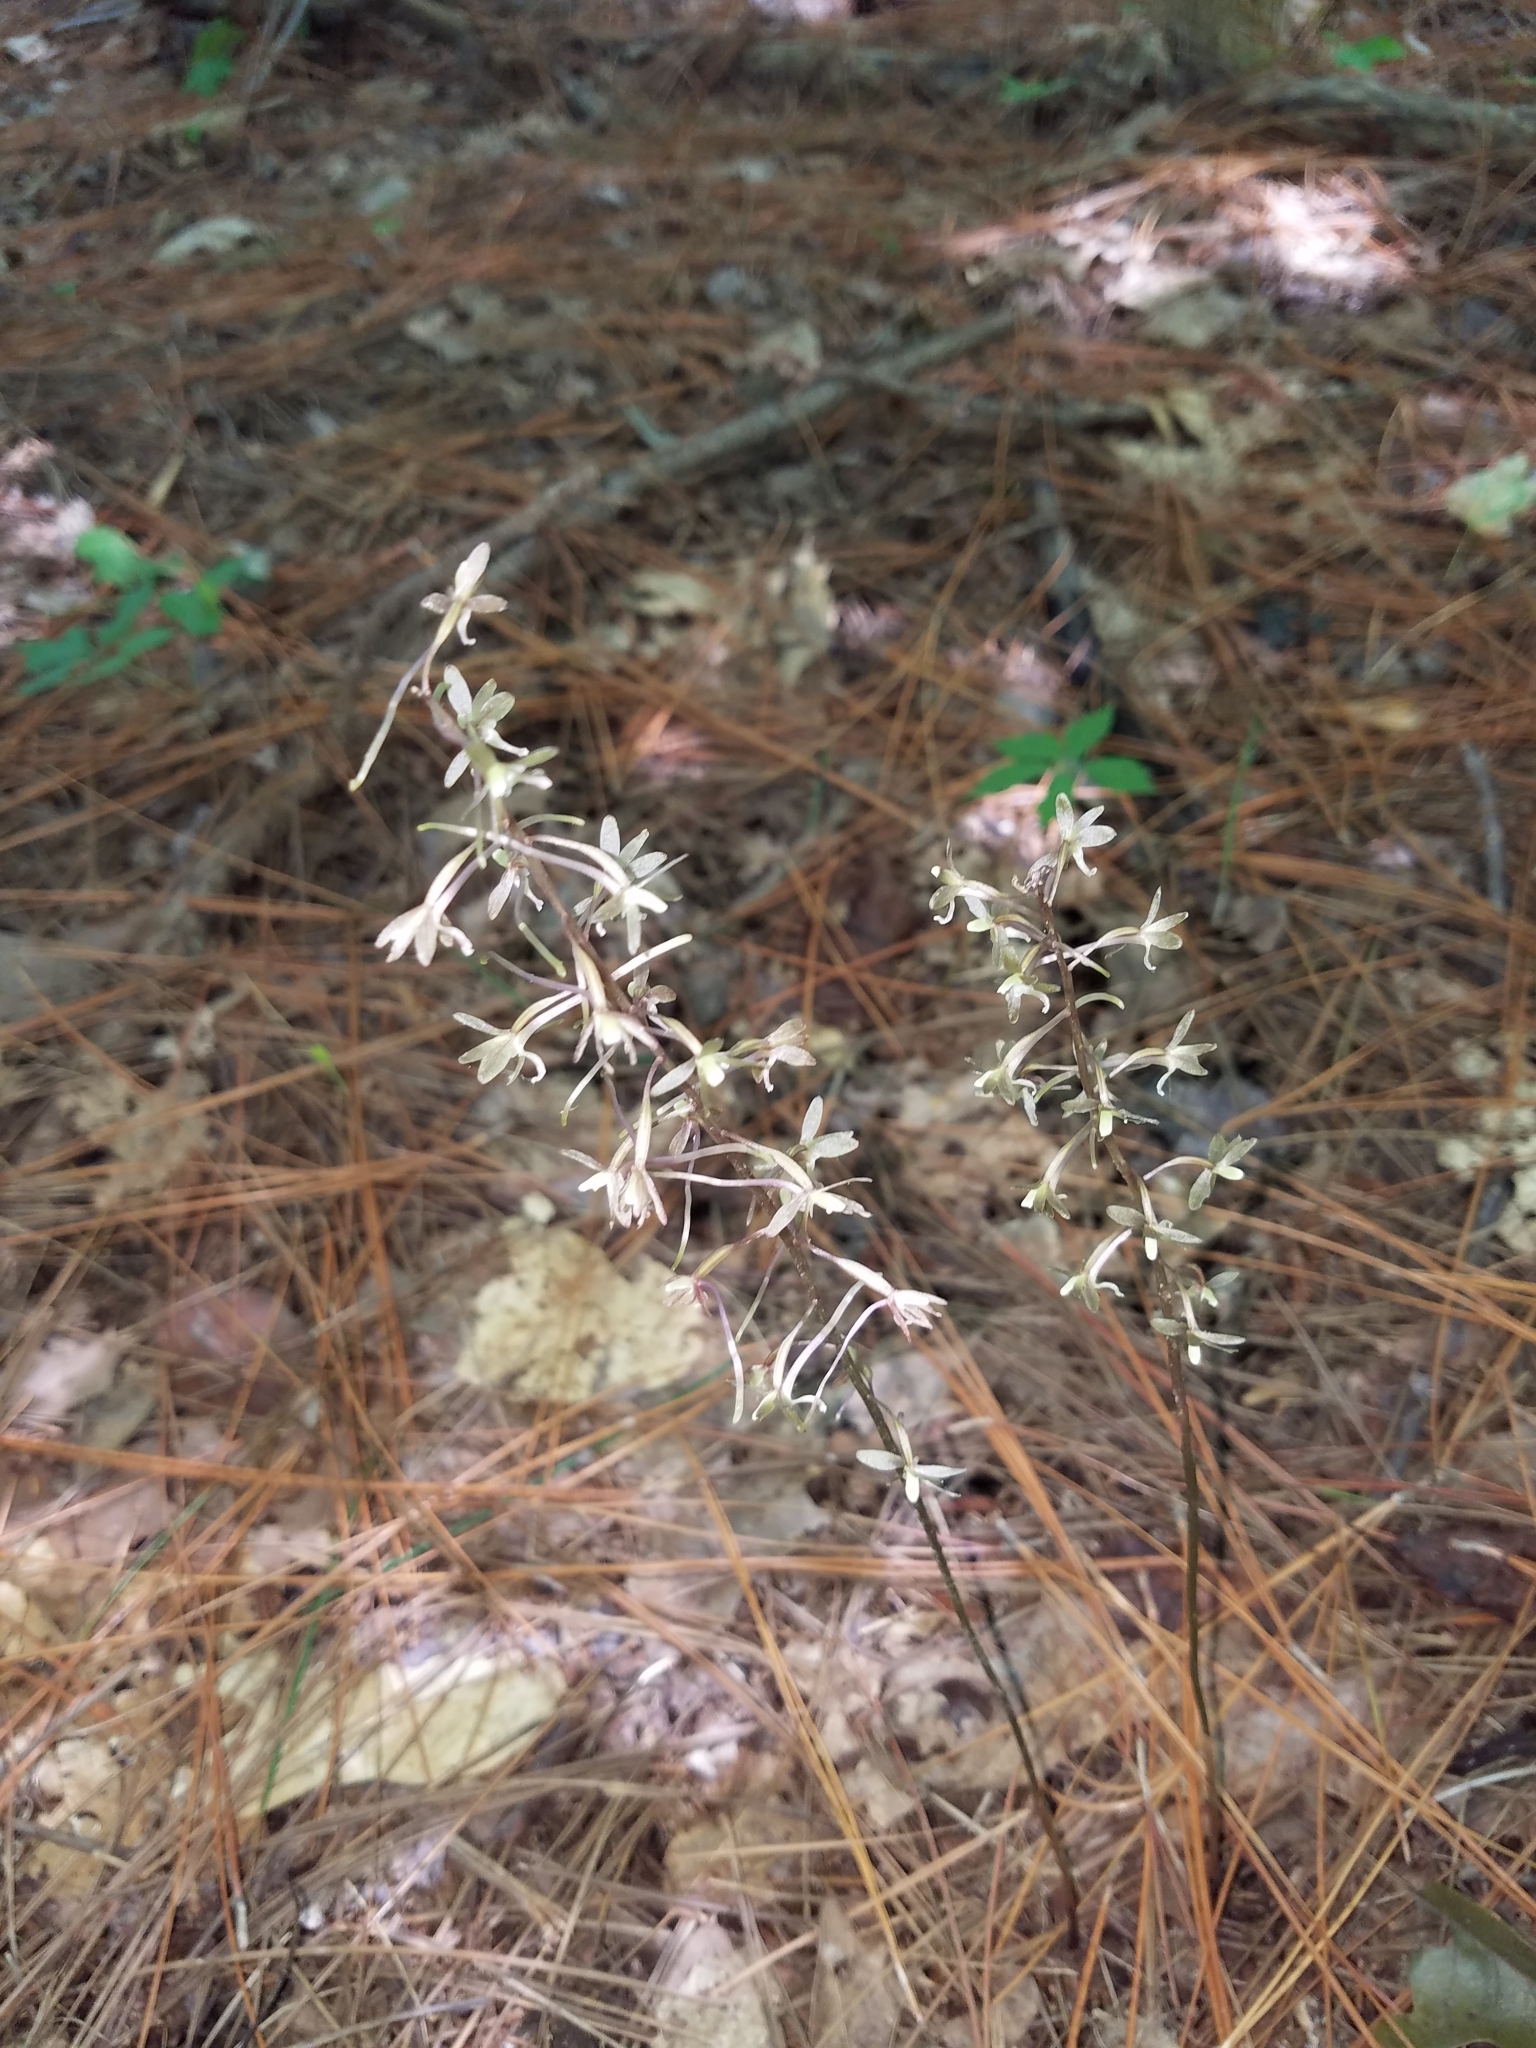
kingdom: Plantae
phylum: Tracheophyta
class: Liliopsida
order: Asparagales
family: Orchidaceae
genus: Tipularia
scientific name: Tipularia discolor
